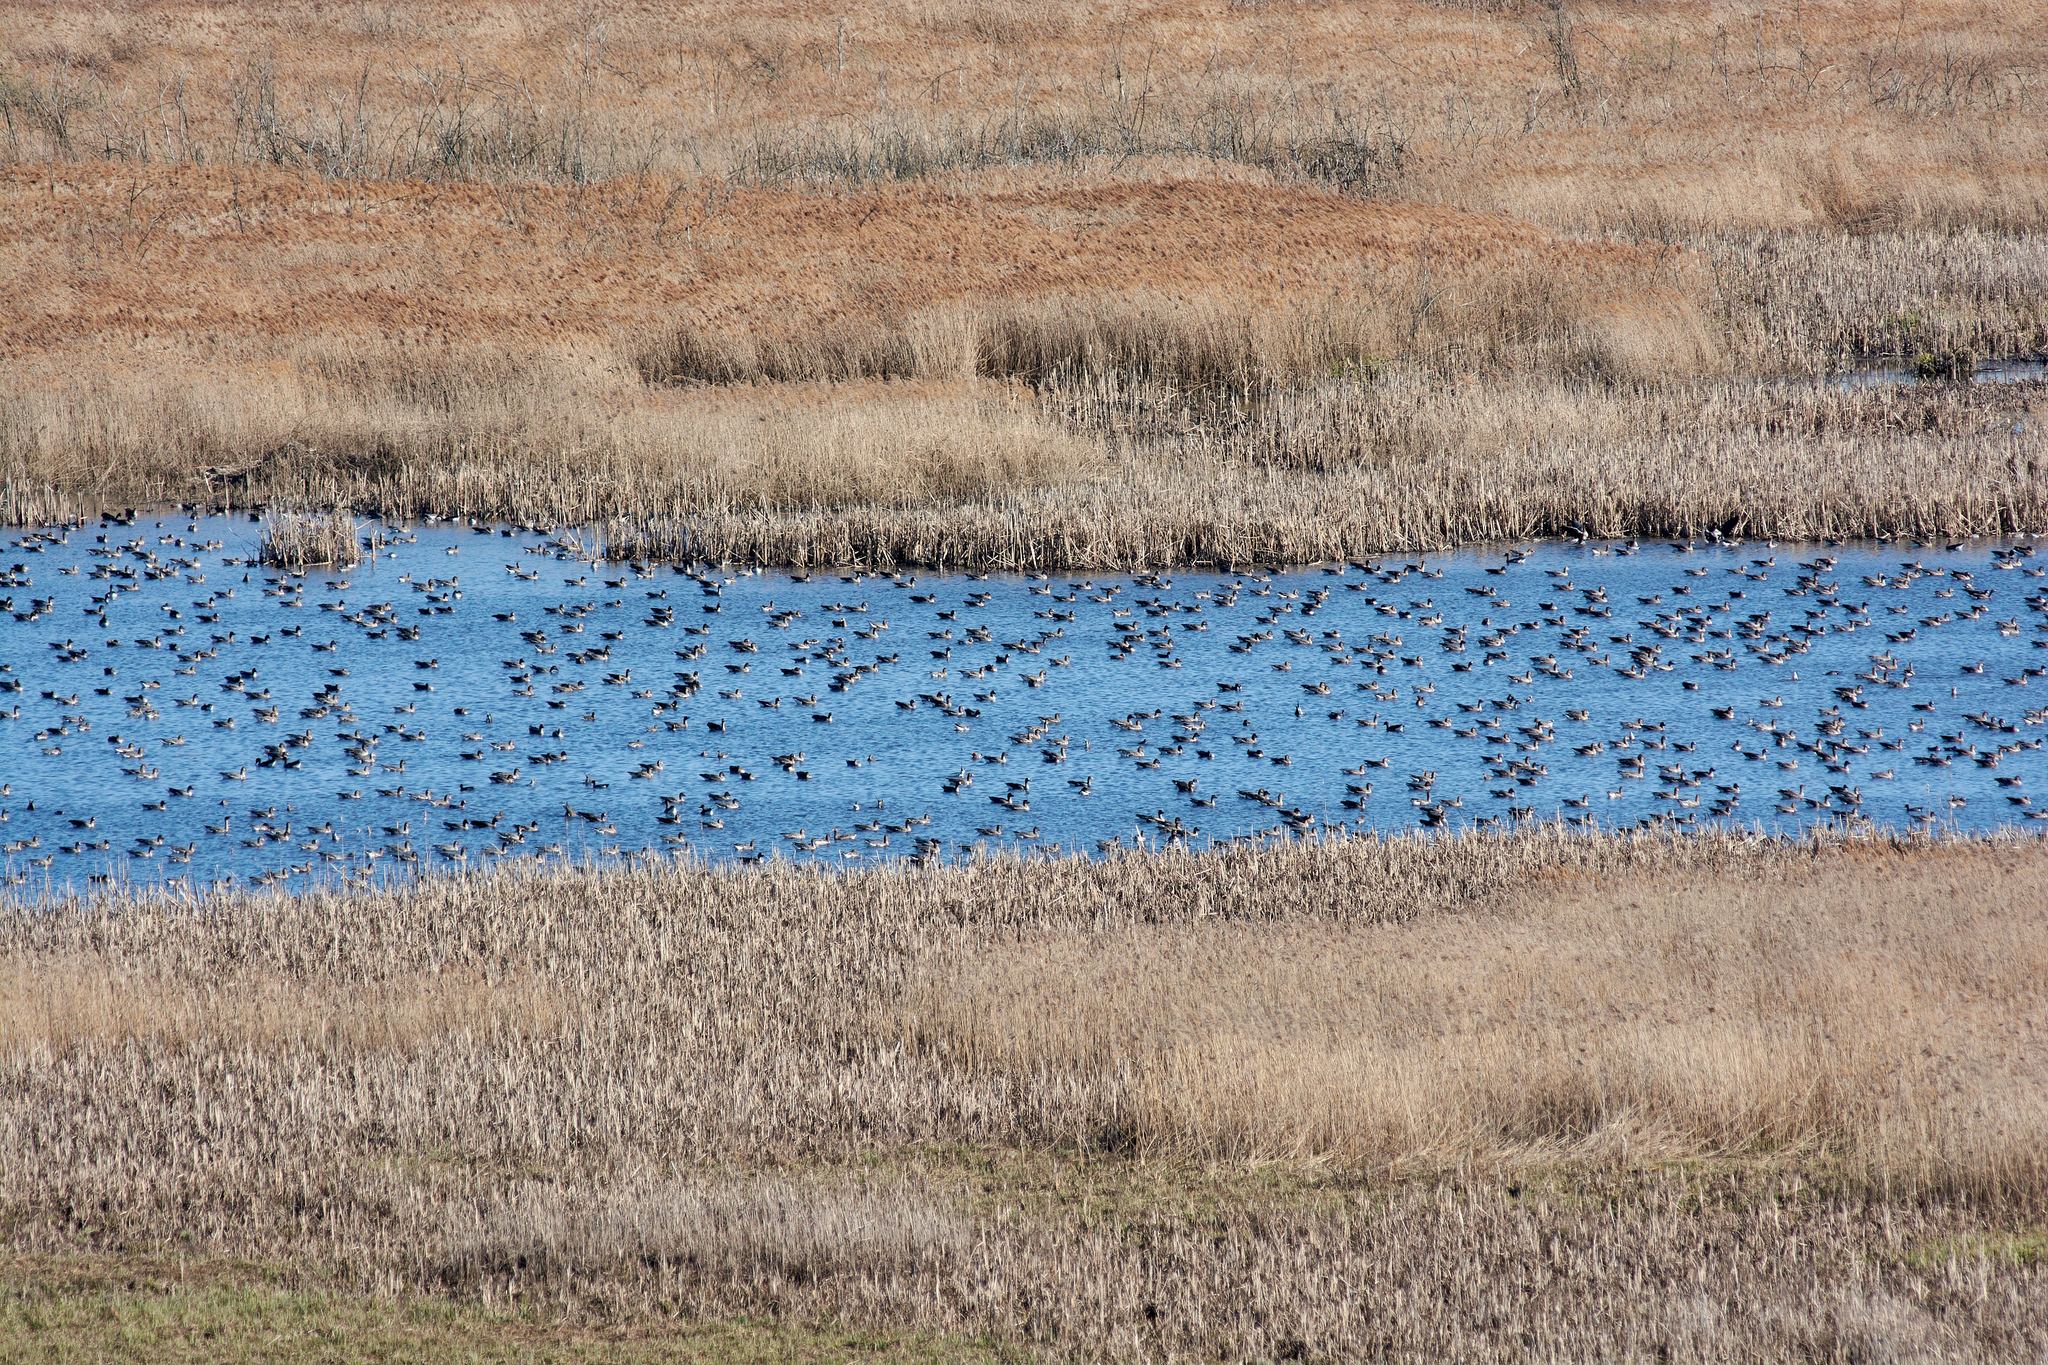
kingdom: Animalia
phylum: Chordata
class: Aves
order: Anseriformes
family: Anatidae
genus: Anser
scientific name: Anser fabalis
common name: Bean goose
